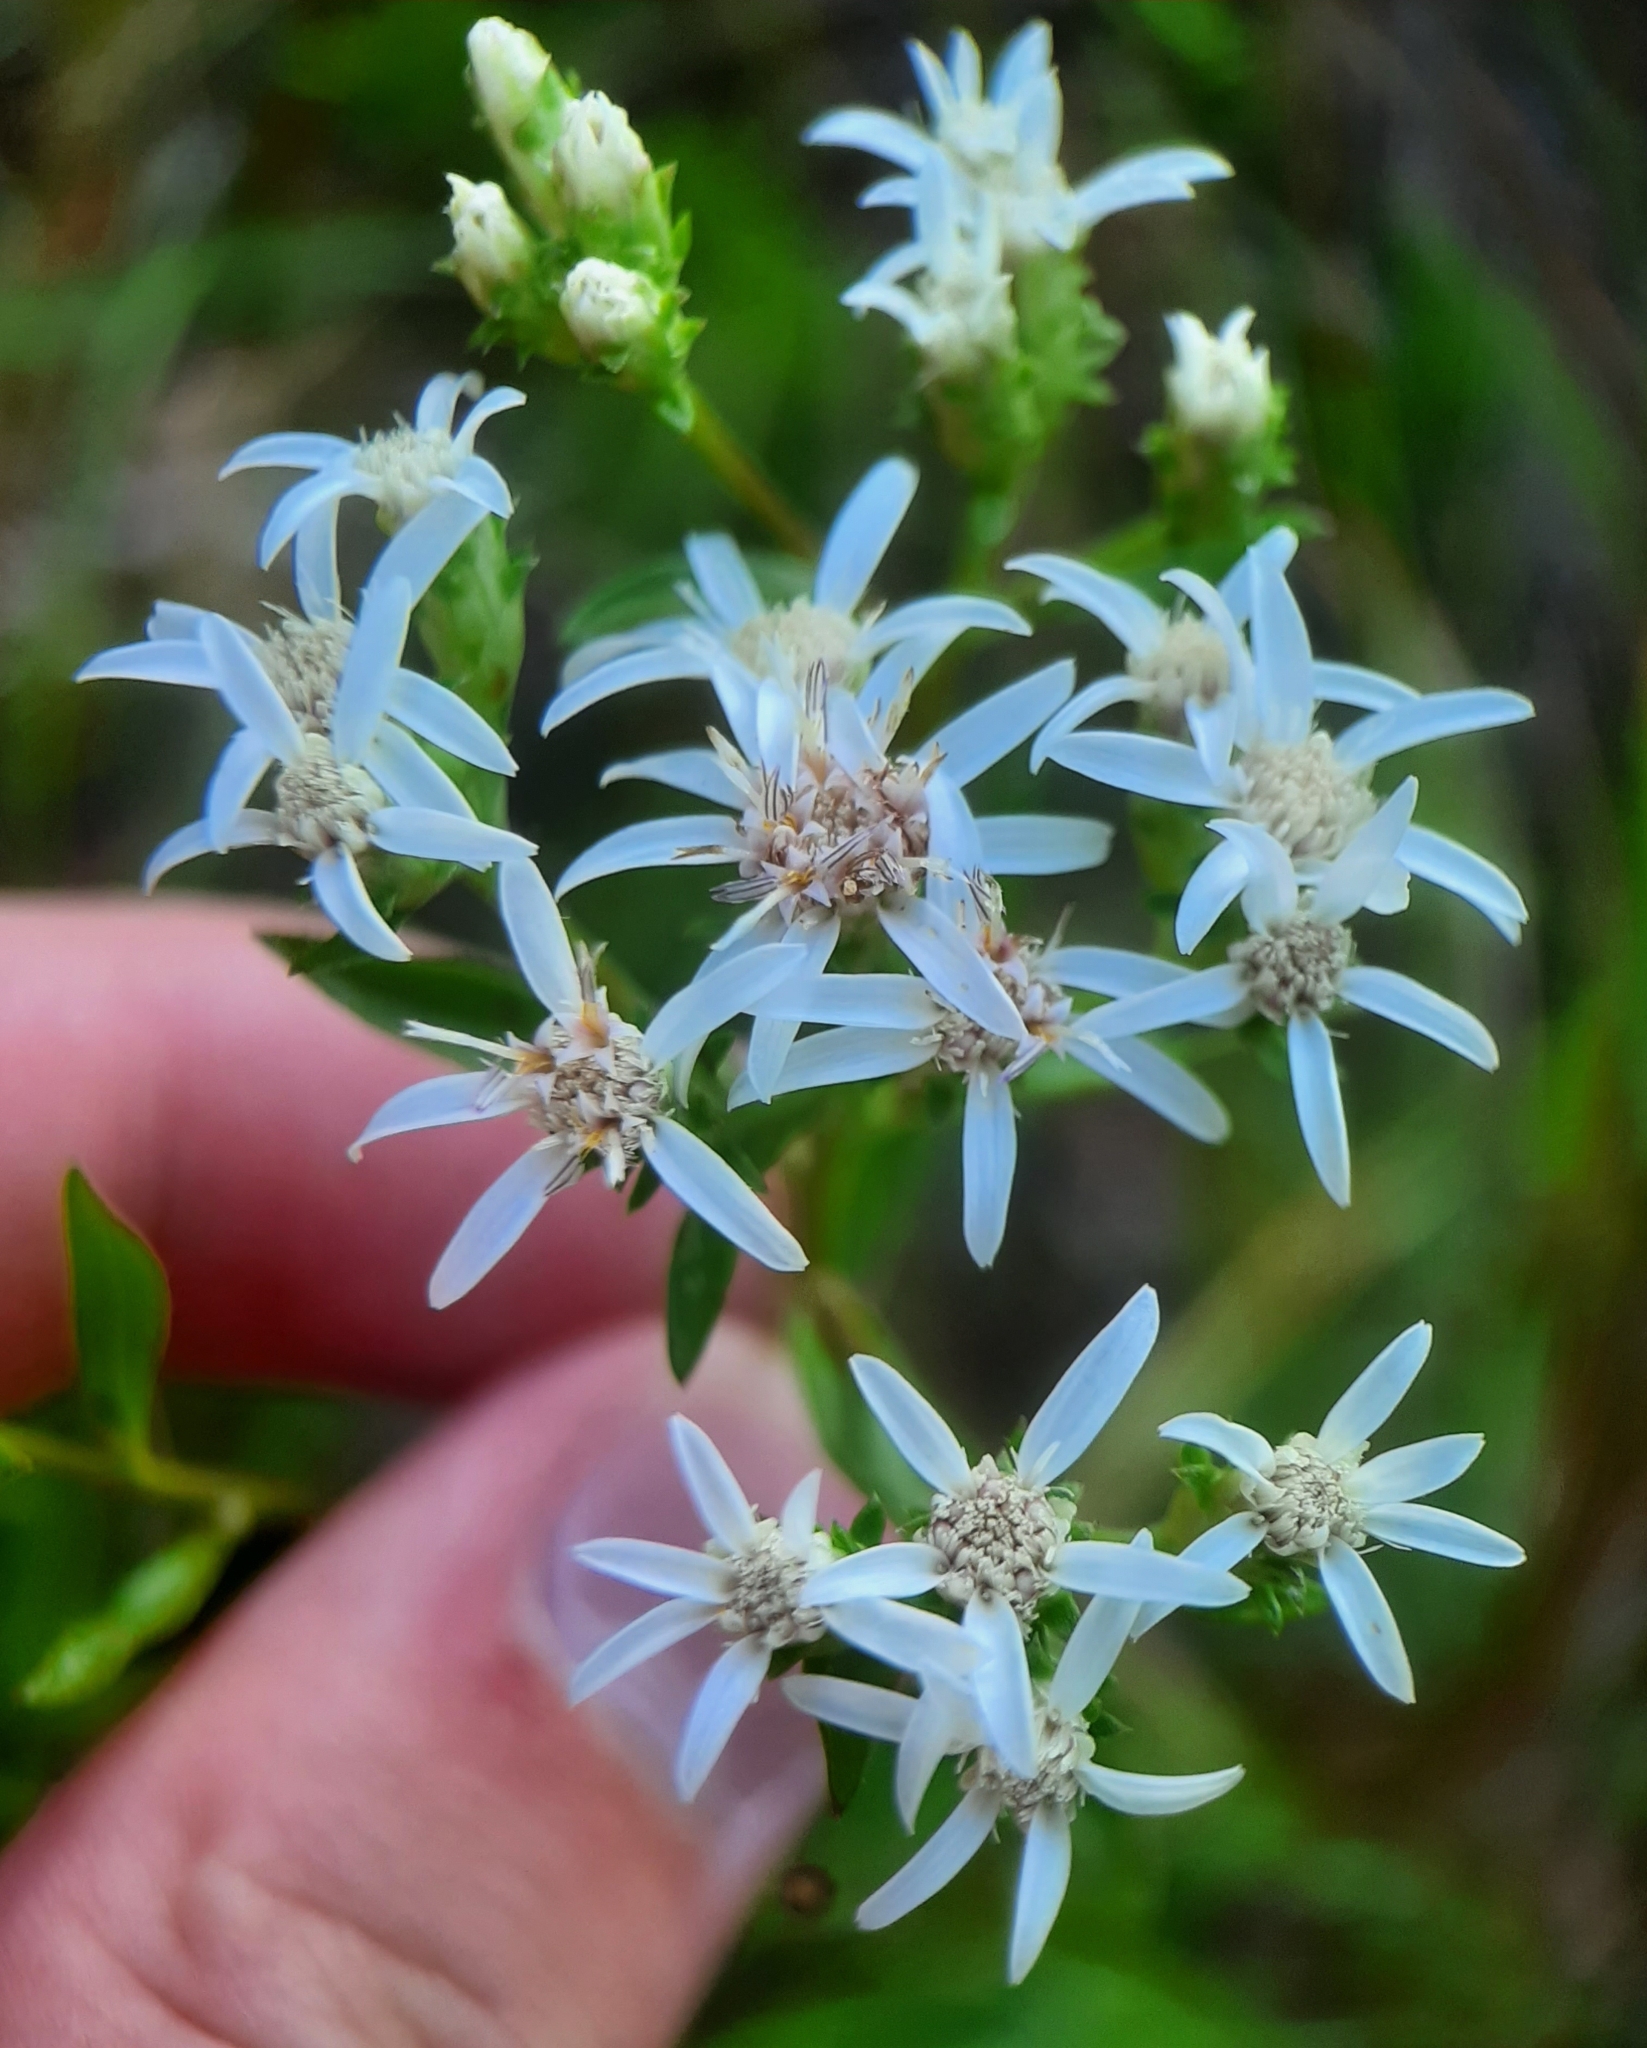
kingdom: Plantae
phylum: Tracheophyta
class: Magnoliopsida
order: Asterales
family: Asteraceae
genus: Sericocarpus
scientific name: Sericocarpus asteroides
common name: Toothed white-top aster
